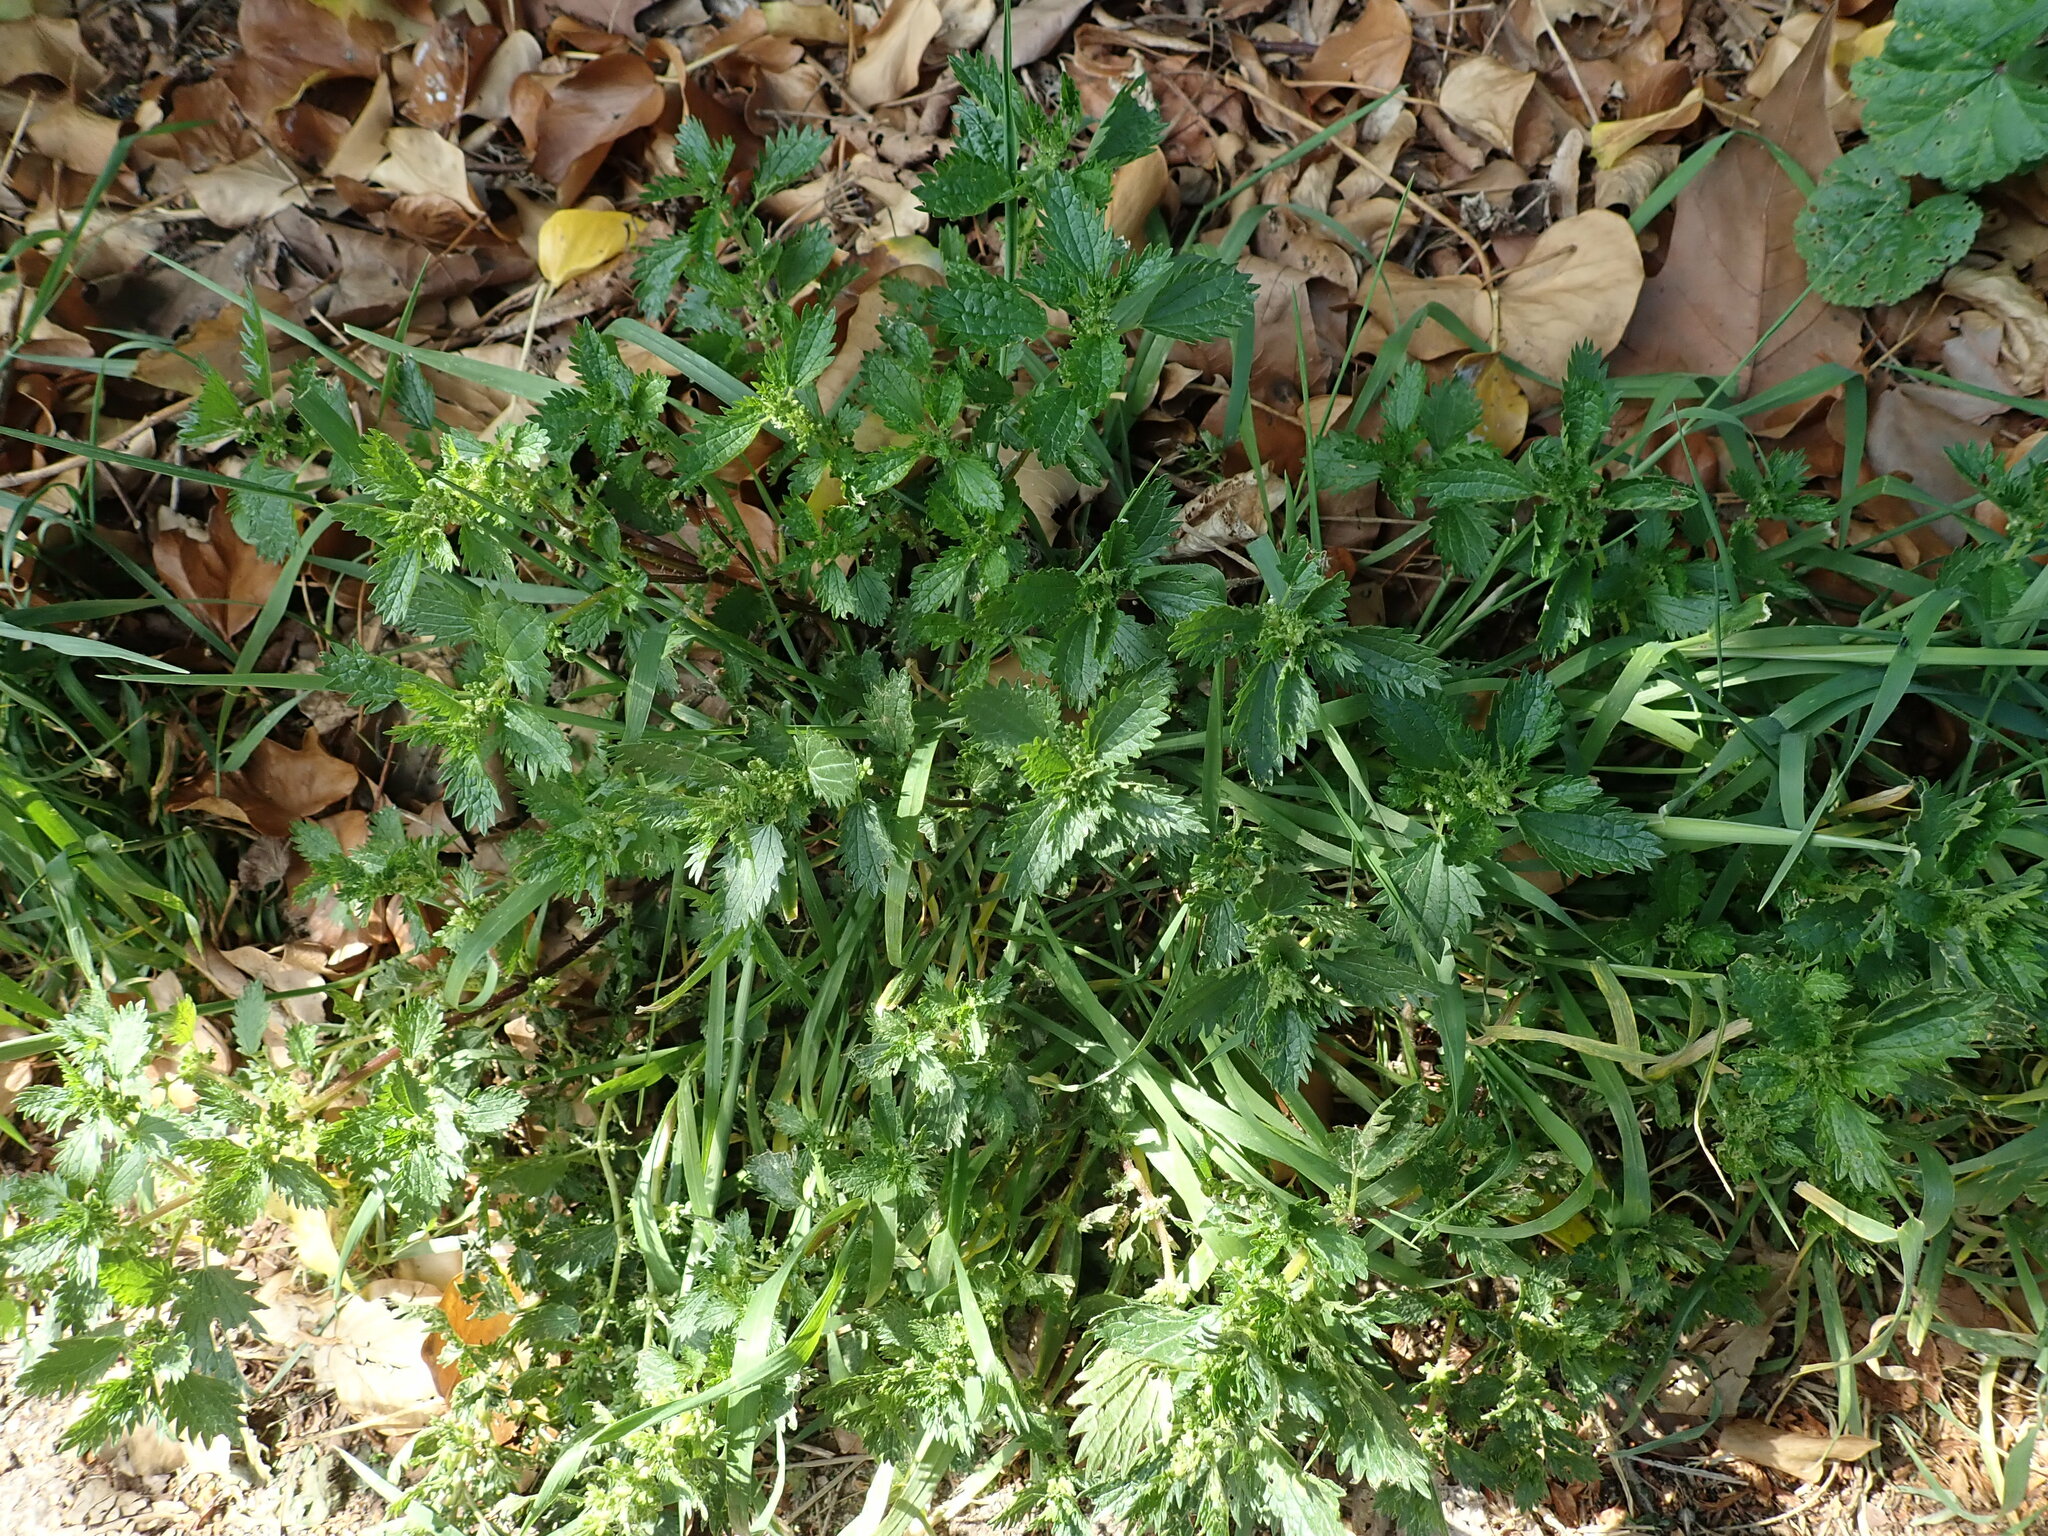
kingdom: Plantae
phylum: Tracheophyta
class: Magnoliopsida
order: Rosales
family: Urticaceae
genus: Urtica
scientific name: Urtica urens
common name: Dwarf nettle
